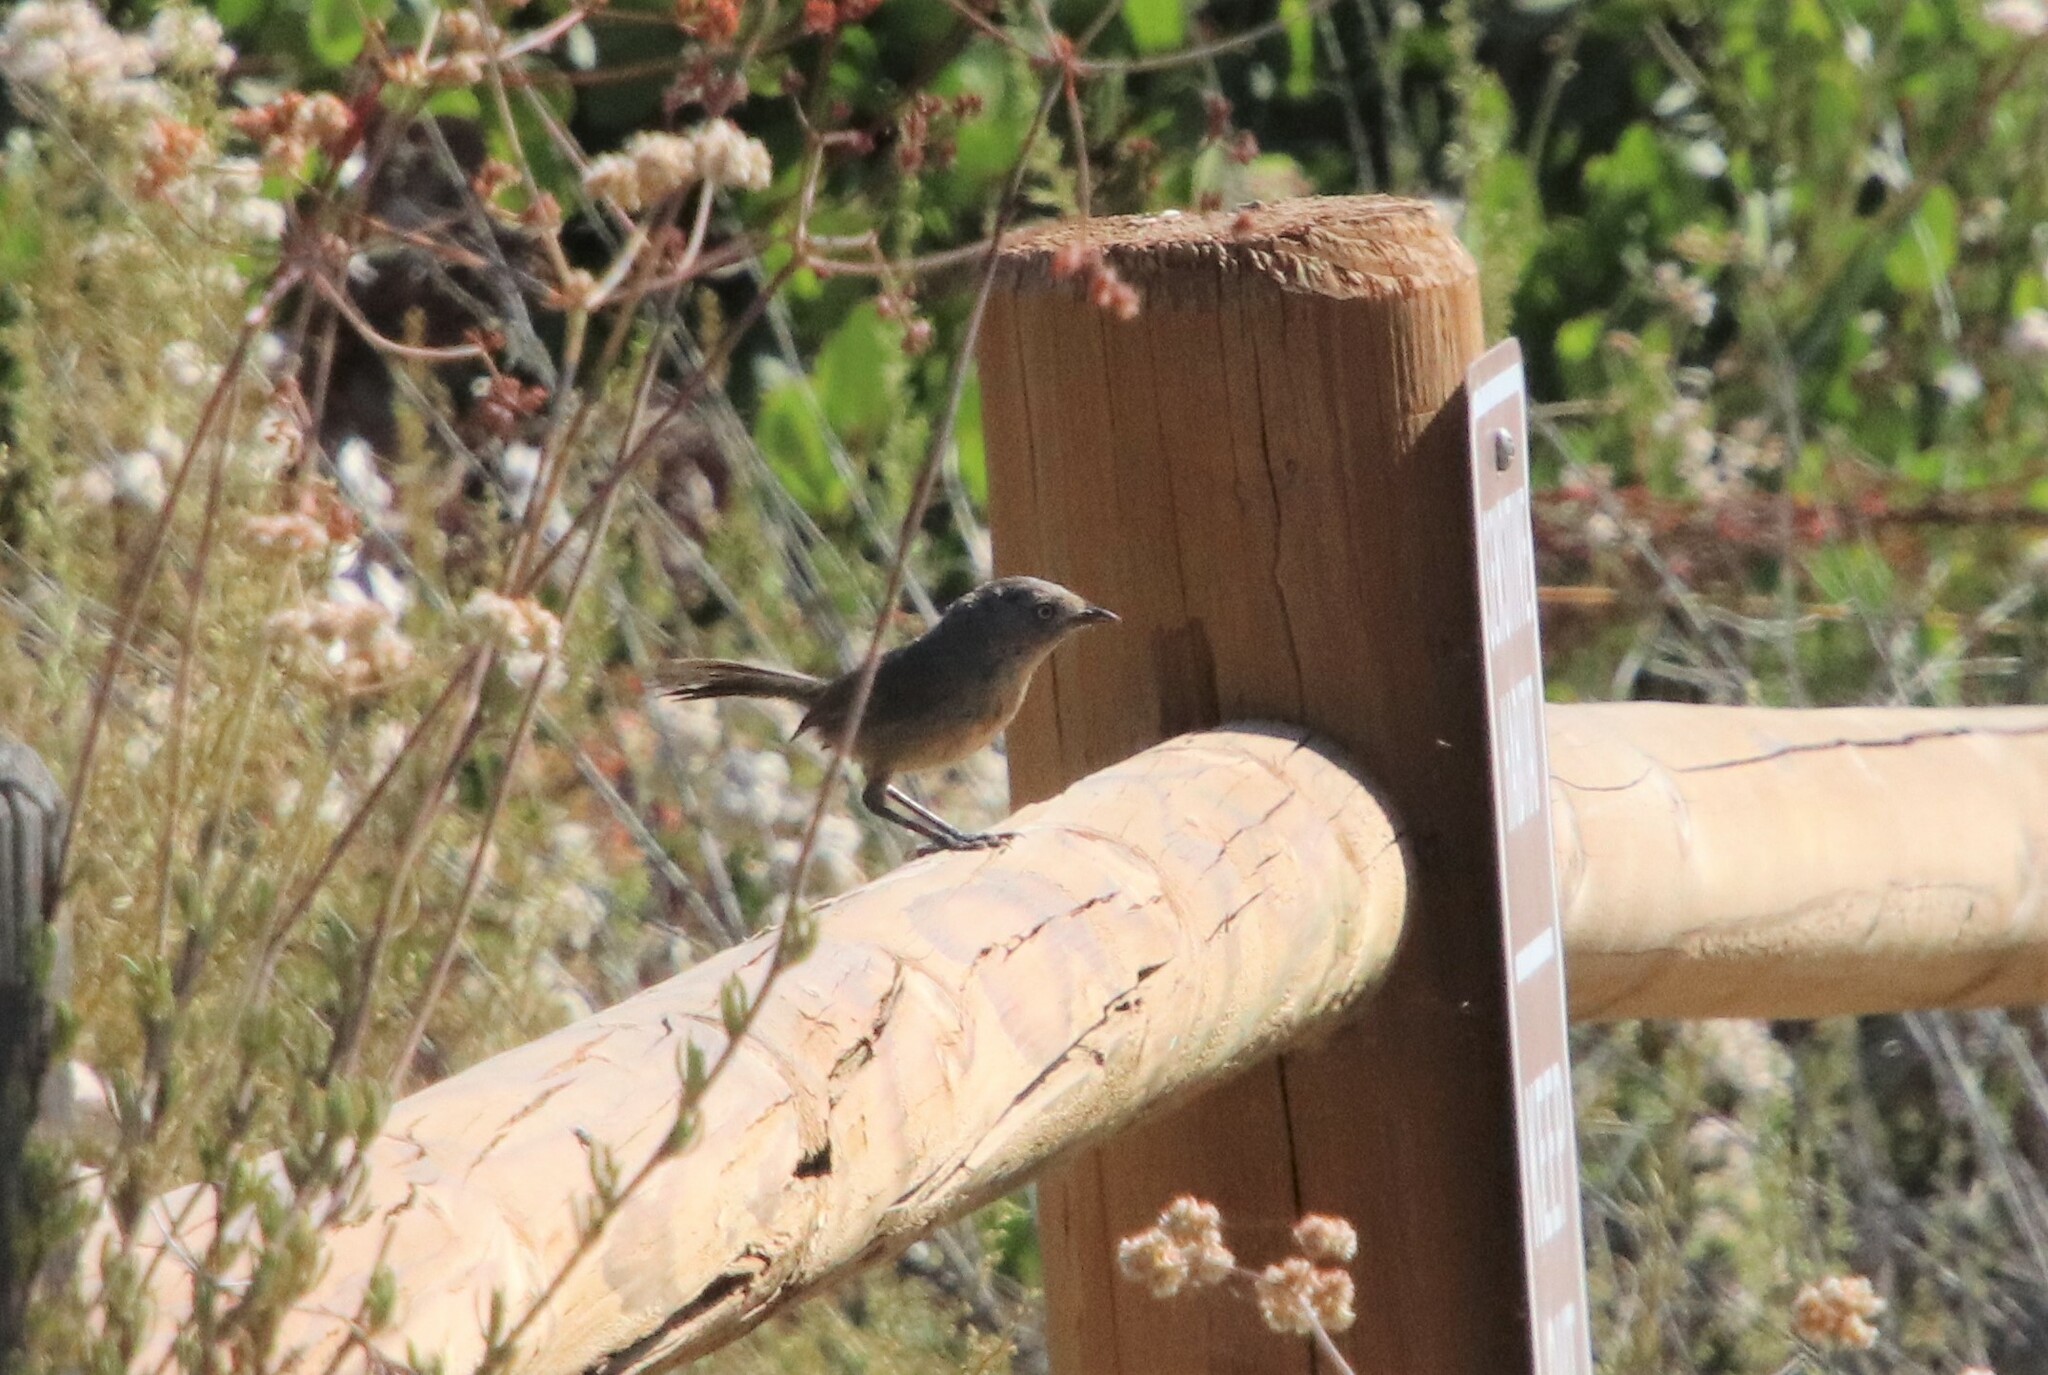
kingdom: Animalia
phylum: Chordata
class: Aves
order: Passeriformes
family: Sylviidae
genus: Chamaea
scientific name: Chamaea fasciata
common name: Wrentit
